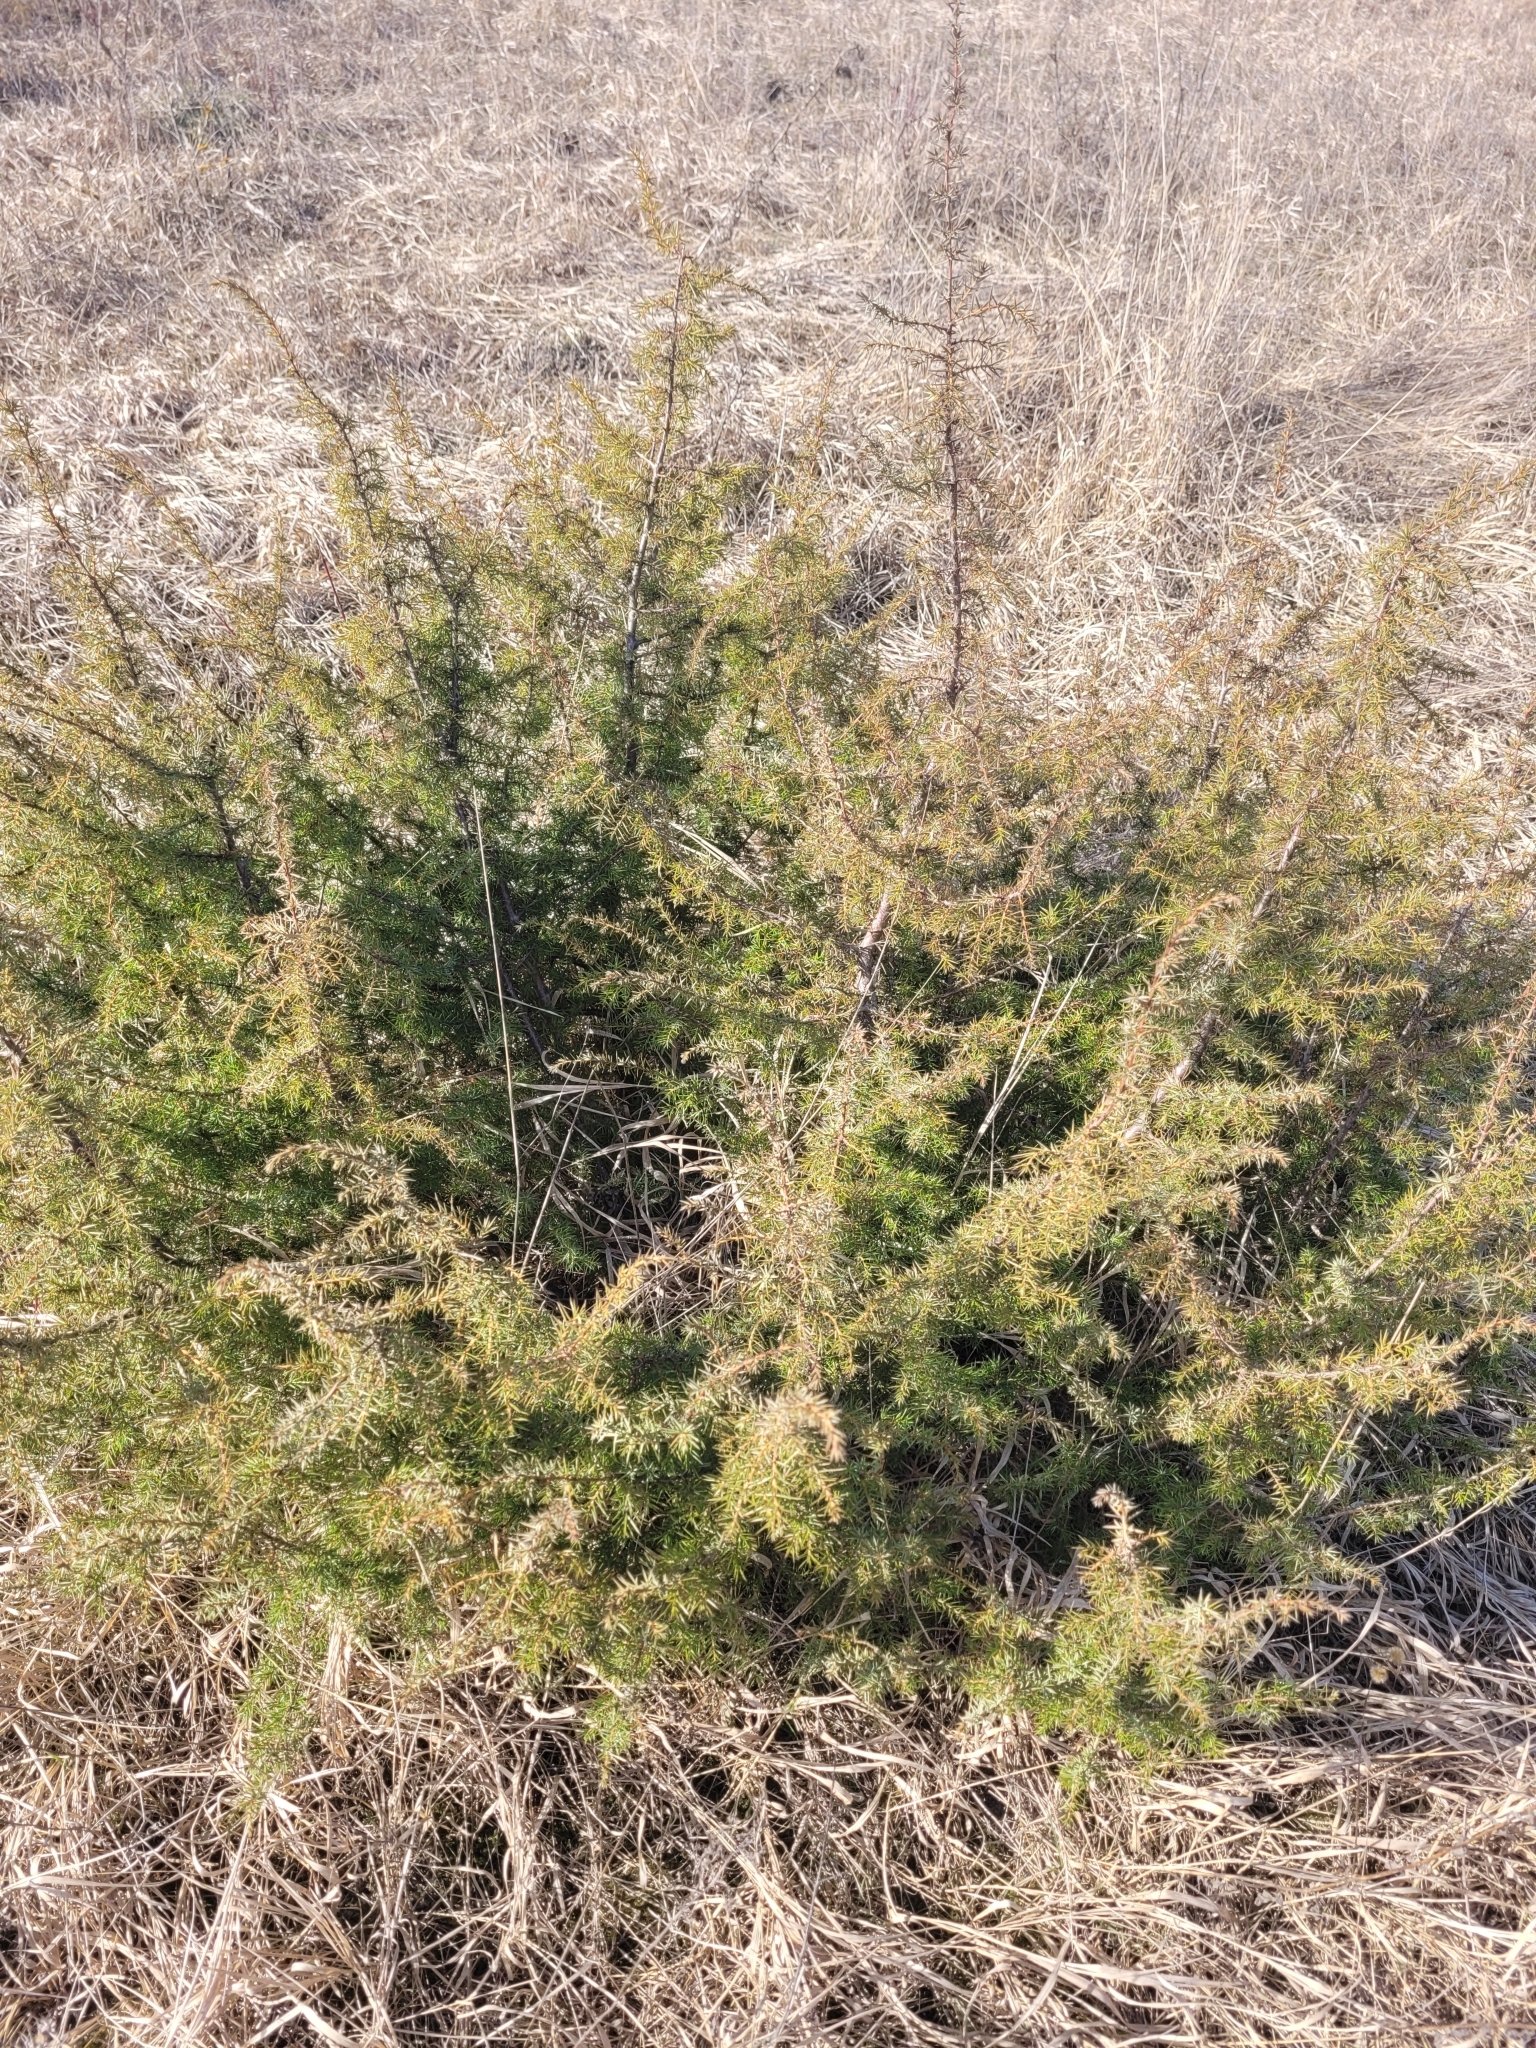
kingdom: Plantae
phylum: Tracheophyta
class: Pinopsida
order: Pinales
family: Cupressaceae
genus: Juniperus
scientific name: Juniperus communis
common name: Common juniper
